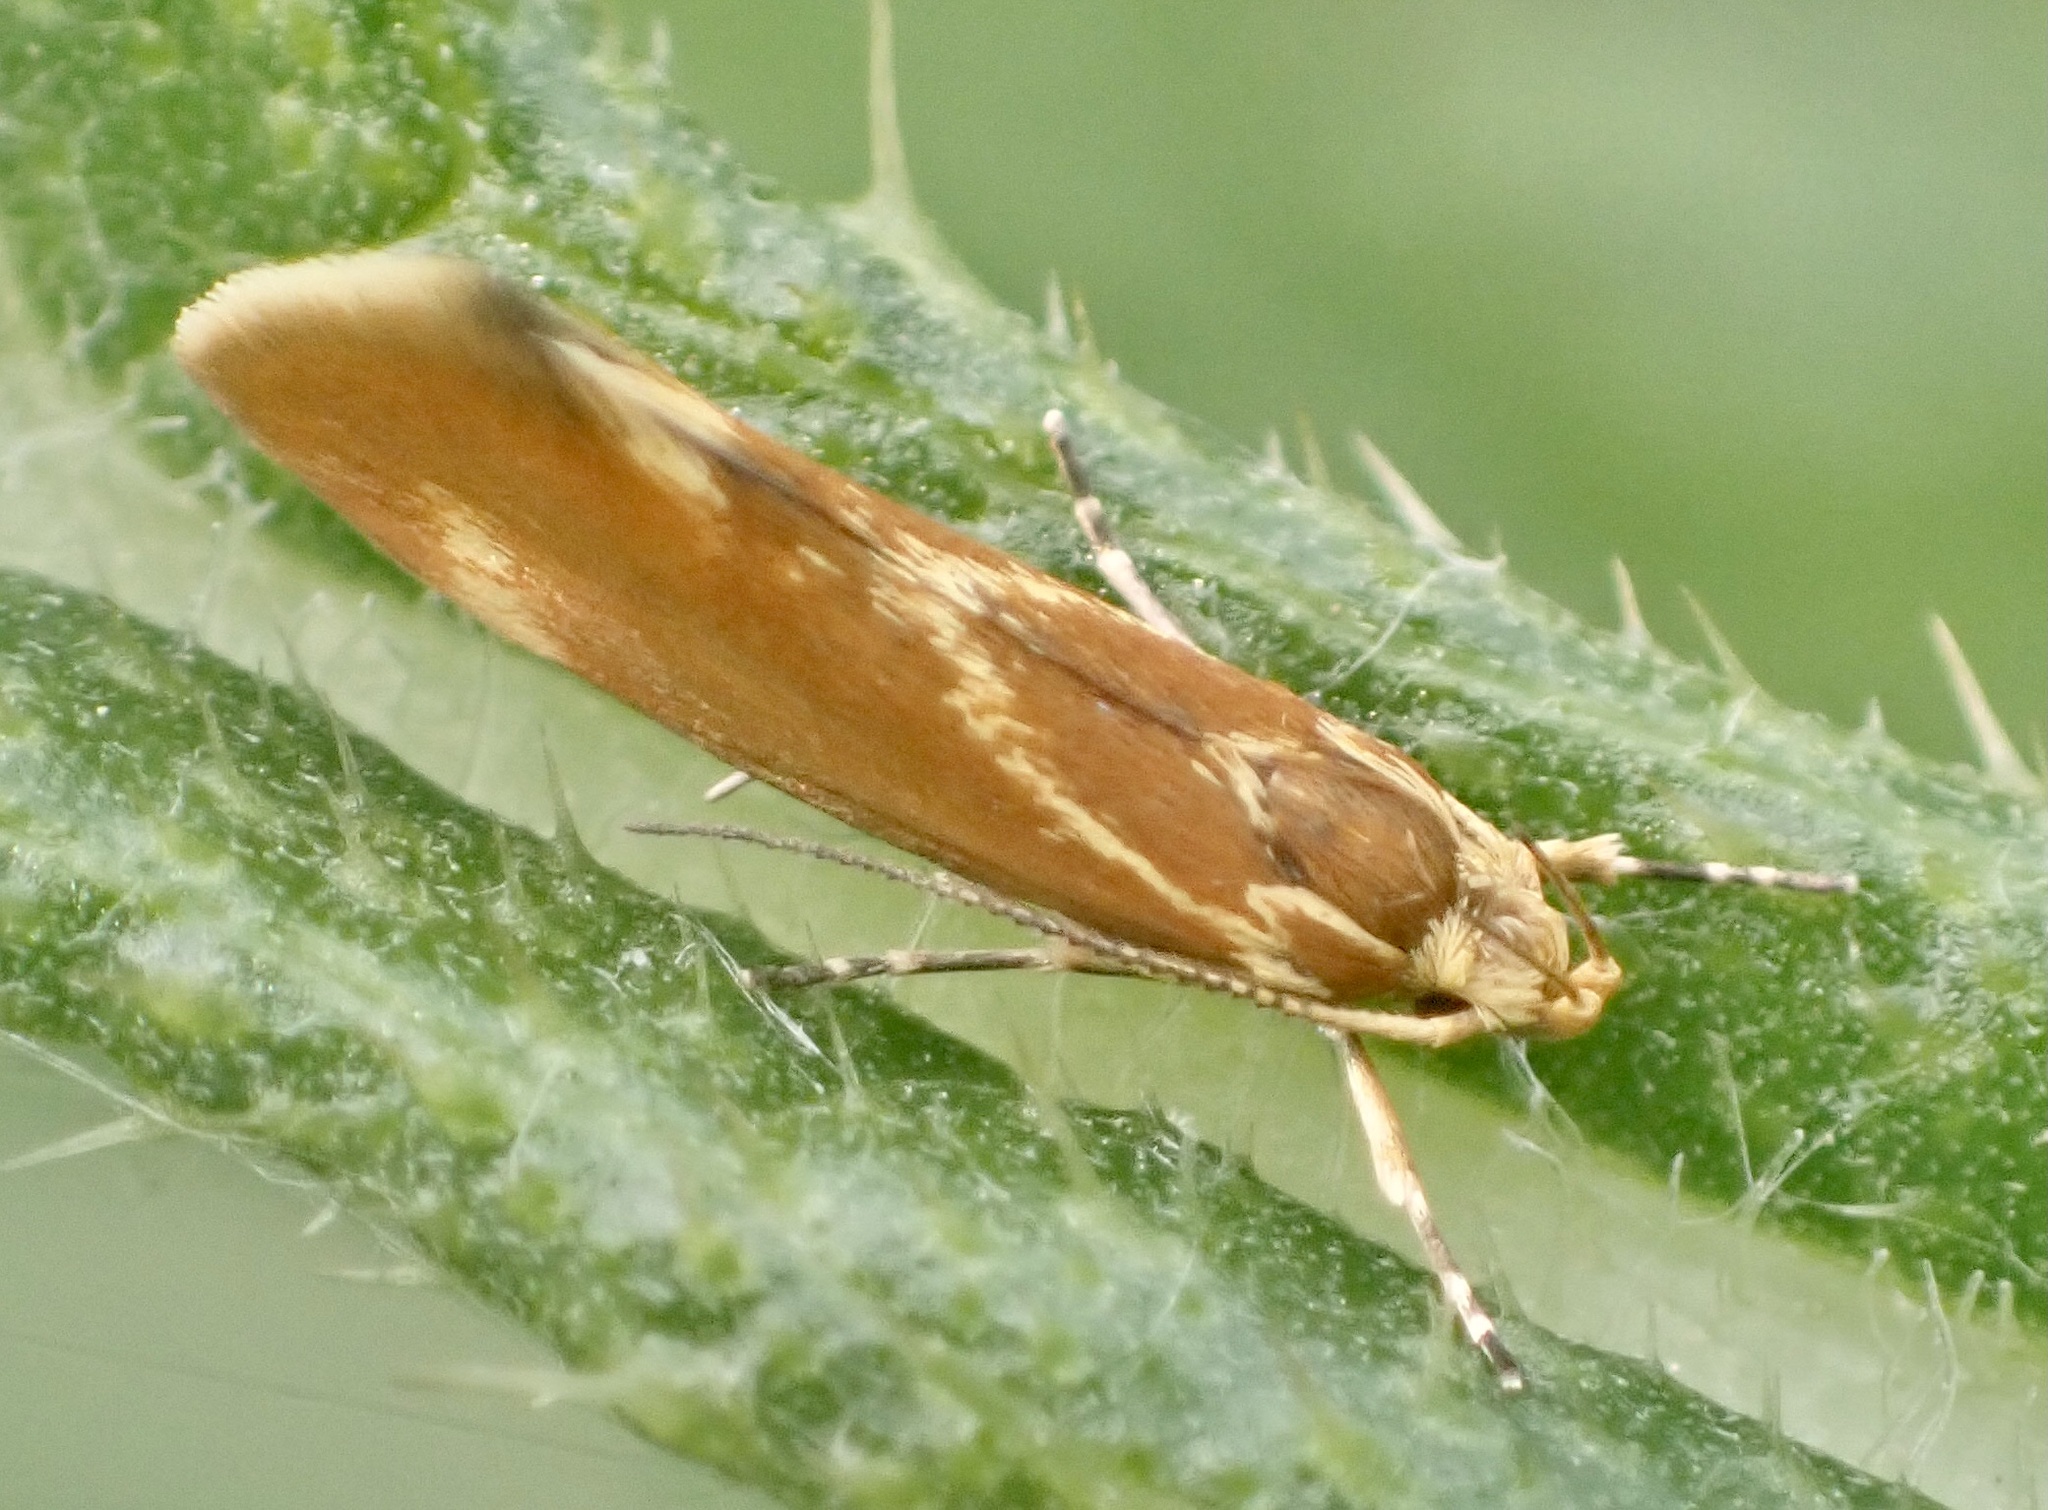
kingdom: Animalia
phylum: Arthropoda
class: Insecta
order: Lepidoptera
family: Oecophoridae
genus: Borkhausenia
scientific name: Borkhausenia italica
